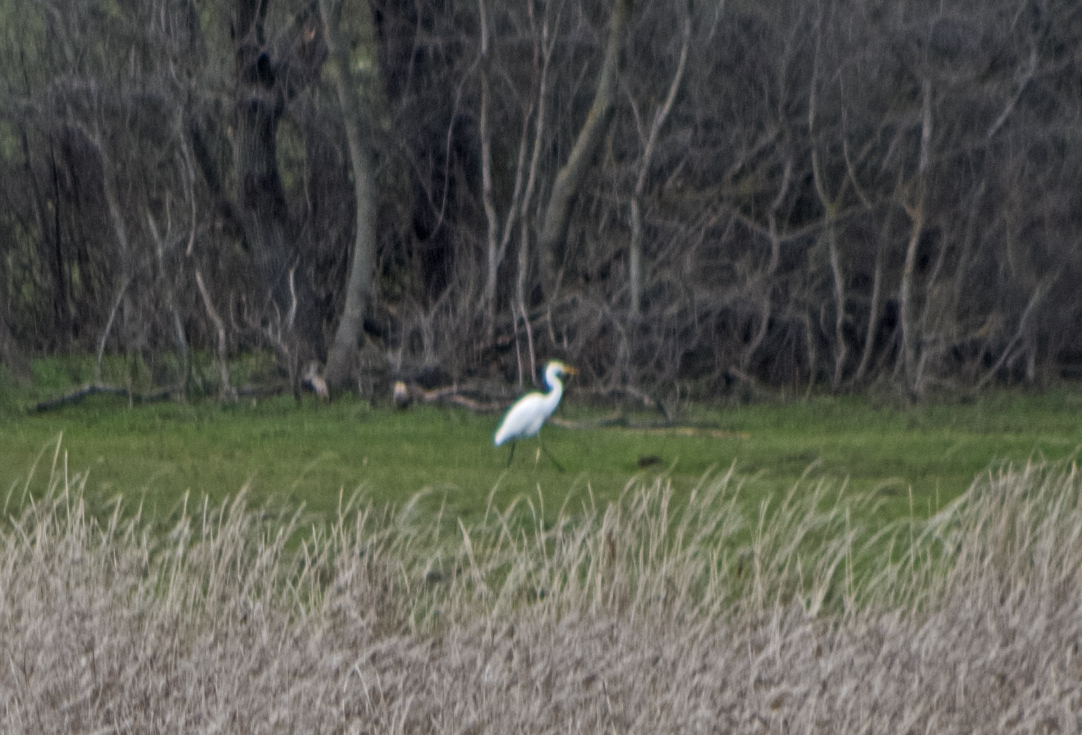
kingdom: Animalia
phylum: Chordata
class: Aves
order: Pelecaniformes
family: Ardeidae
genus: Ardea
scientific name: Ardea alba
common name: Great egret
